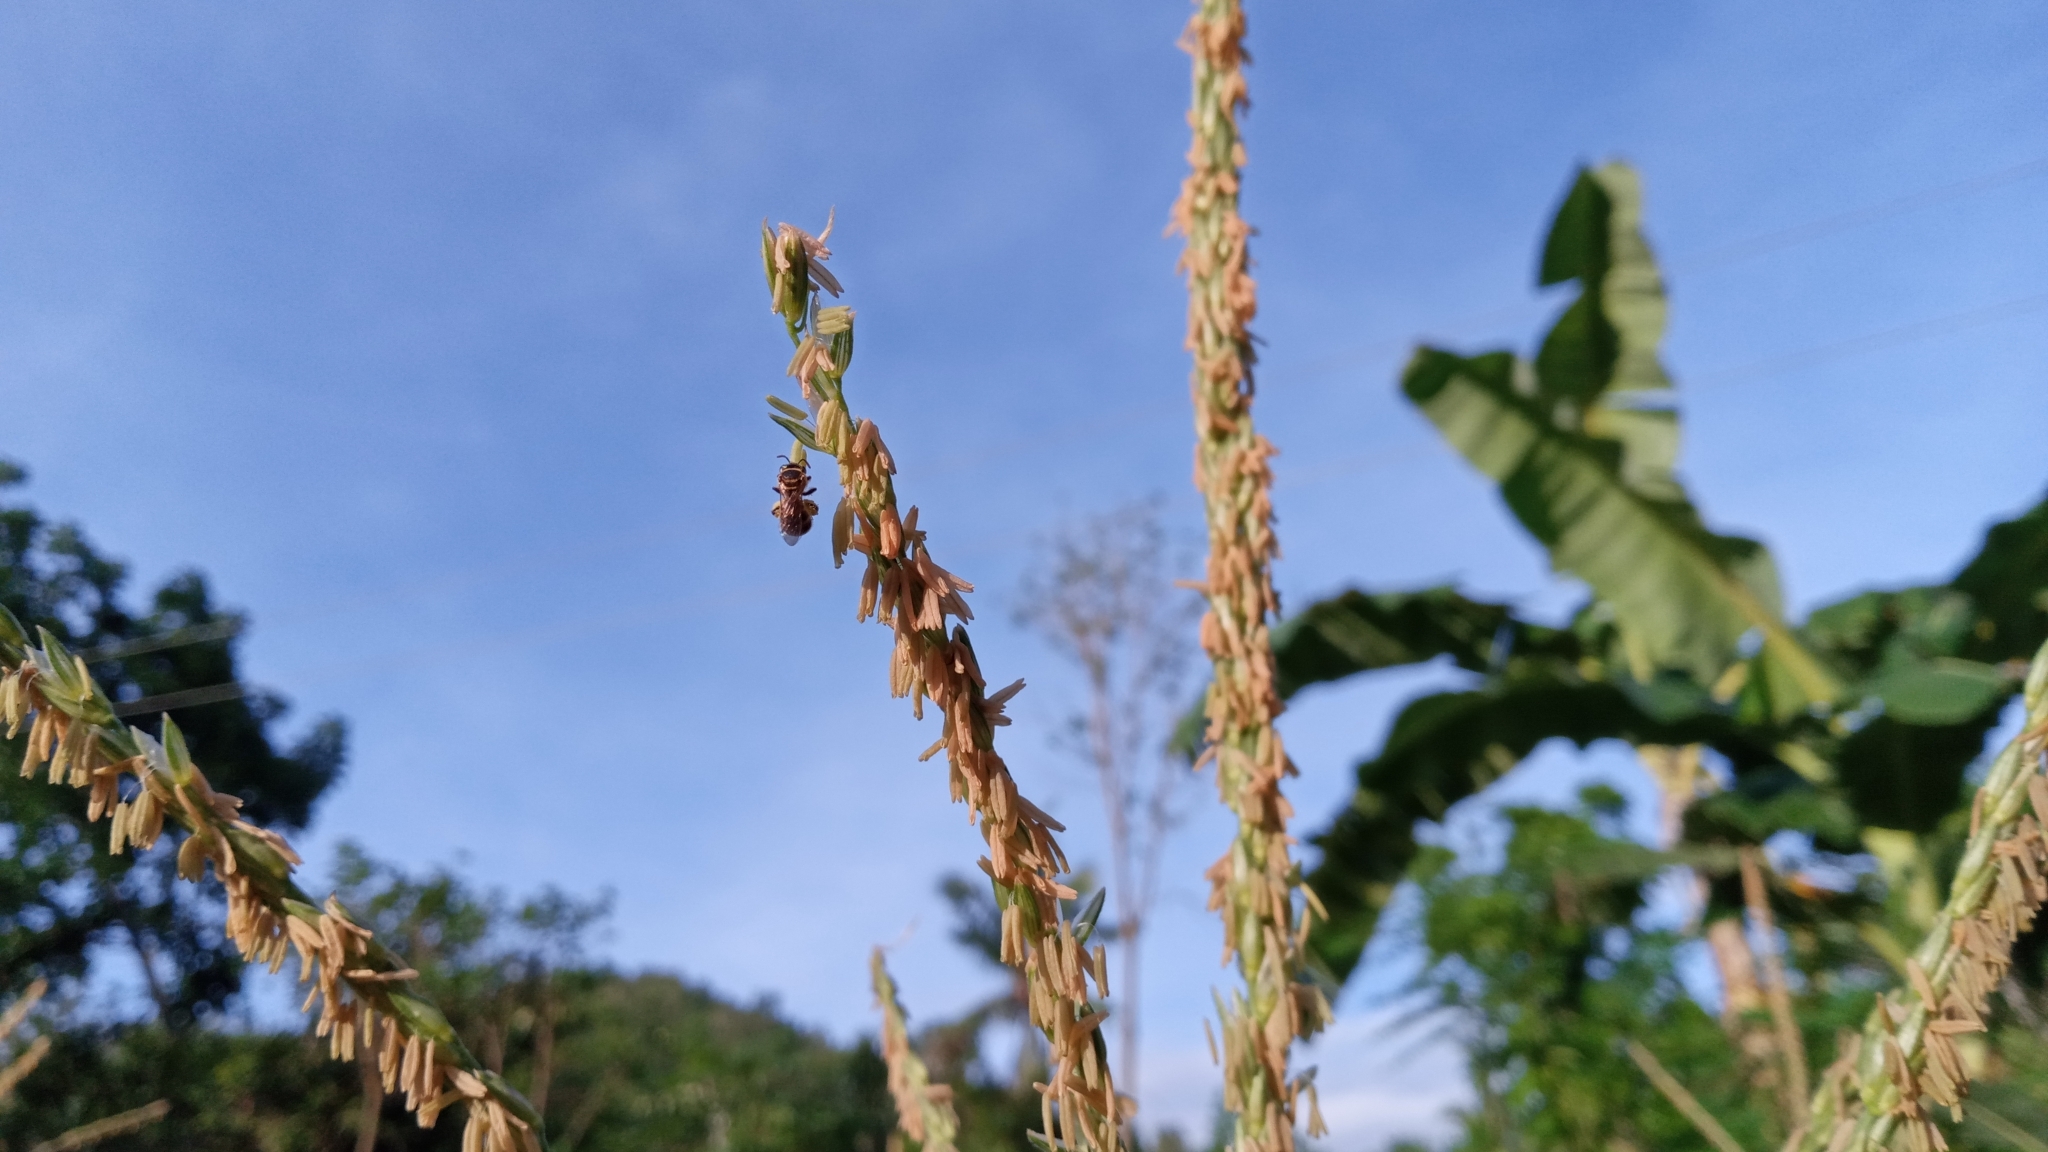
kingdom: Plantae
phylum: Tracheophyta
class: Liliopsida
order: Poales
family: Poaceae
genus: Zea
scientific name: Zea mays
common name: Maize
